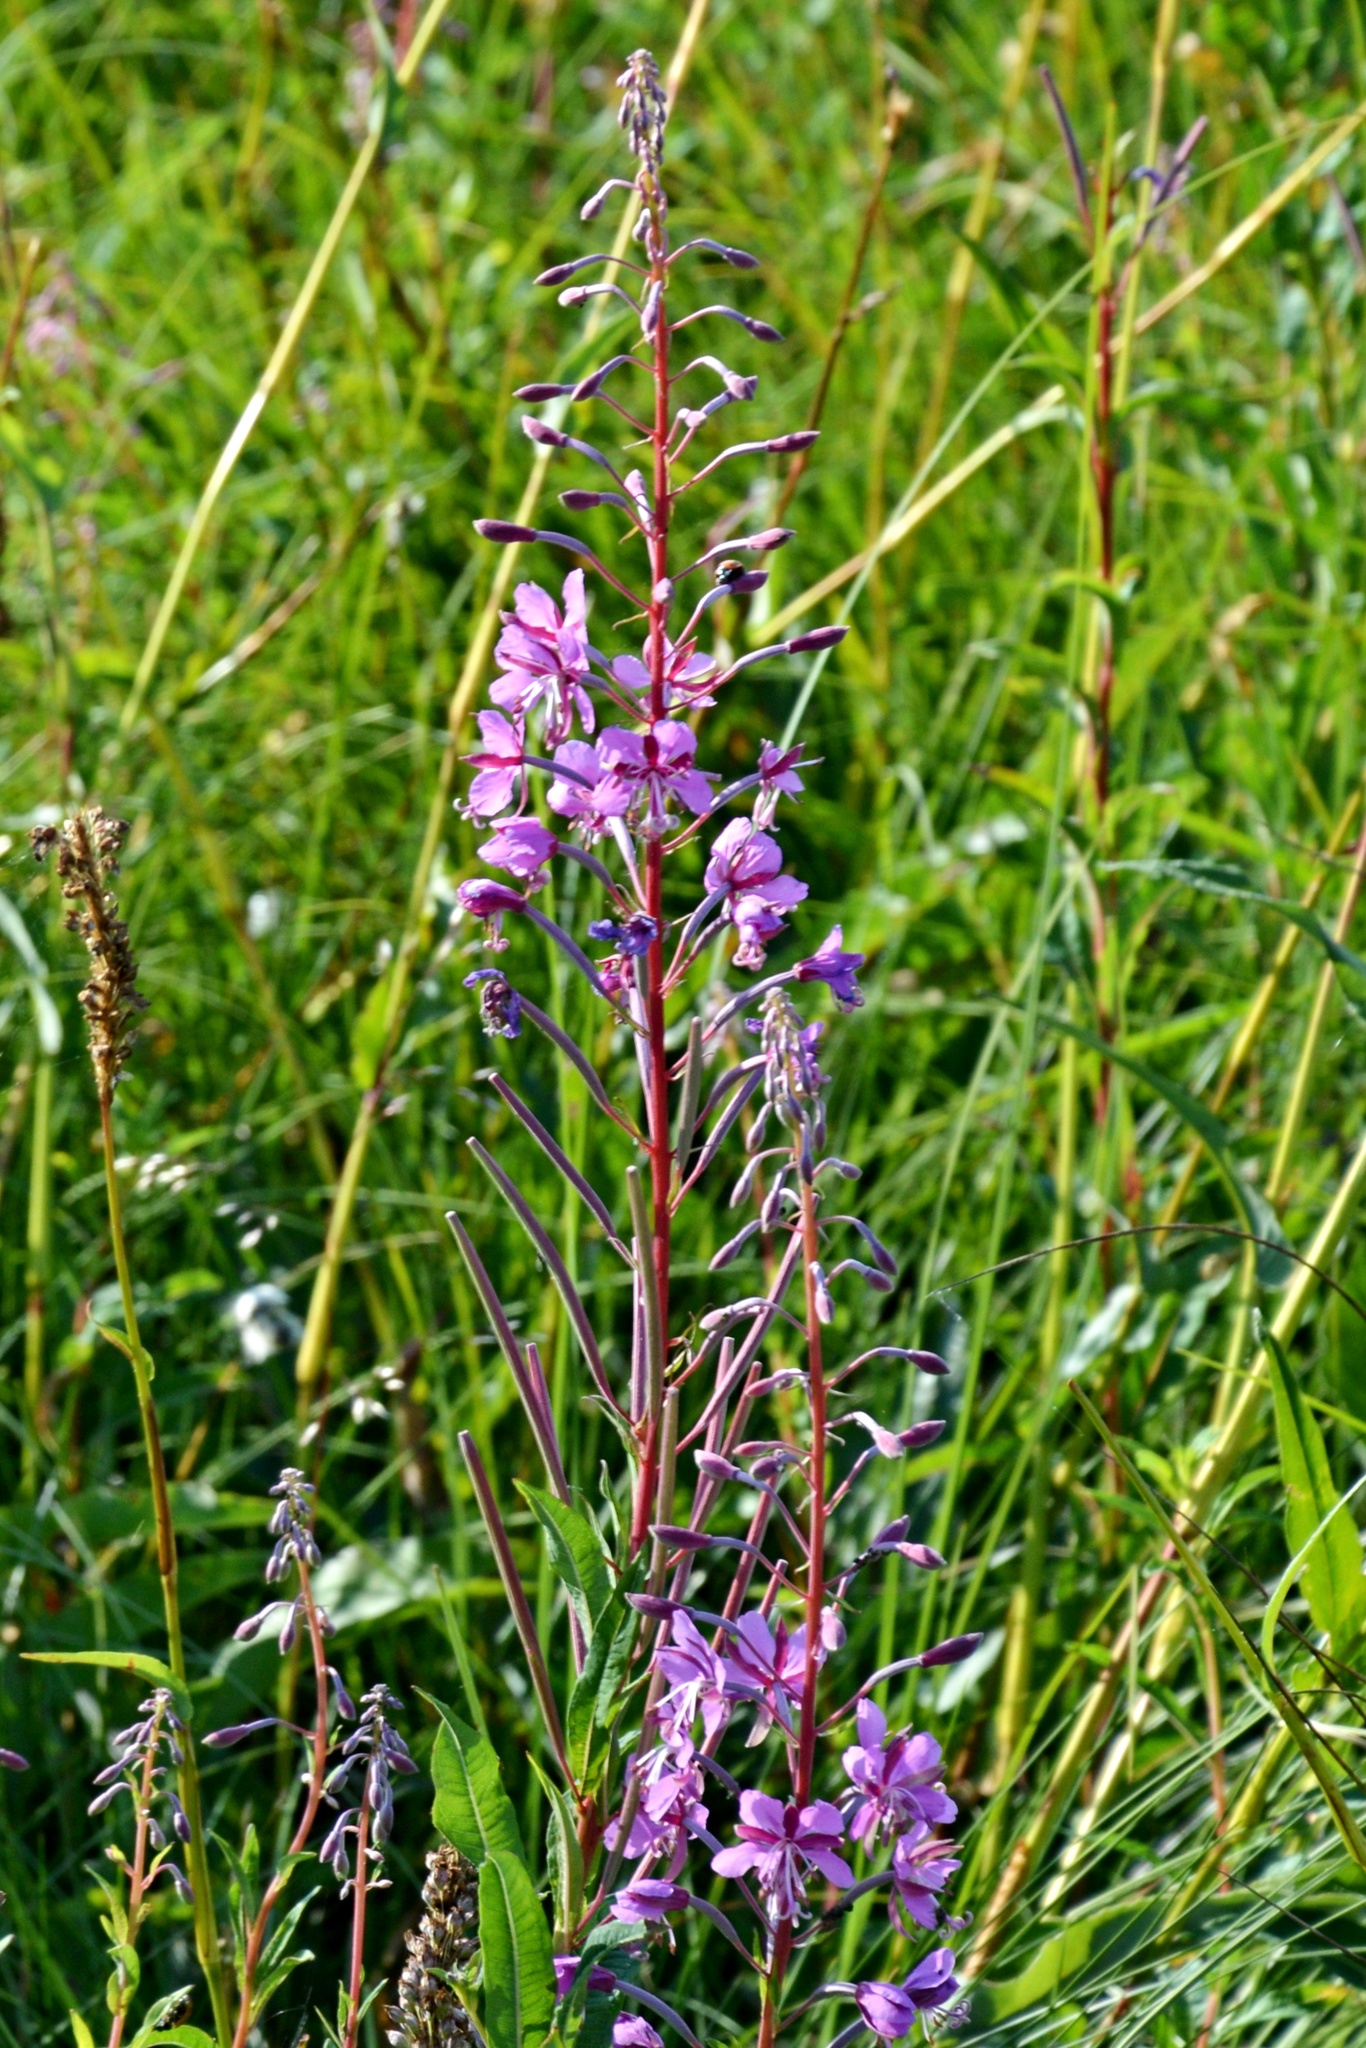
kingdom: Plantae
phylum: Tracheophyta
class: Magnoliopsida
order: Myrtales
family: Onagraceae
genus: Chamaenerion
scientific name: Chamaenerion angustifolium
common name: Fireweed
